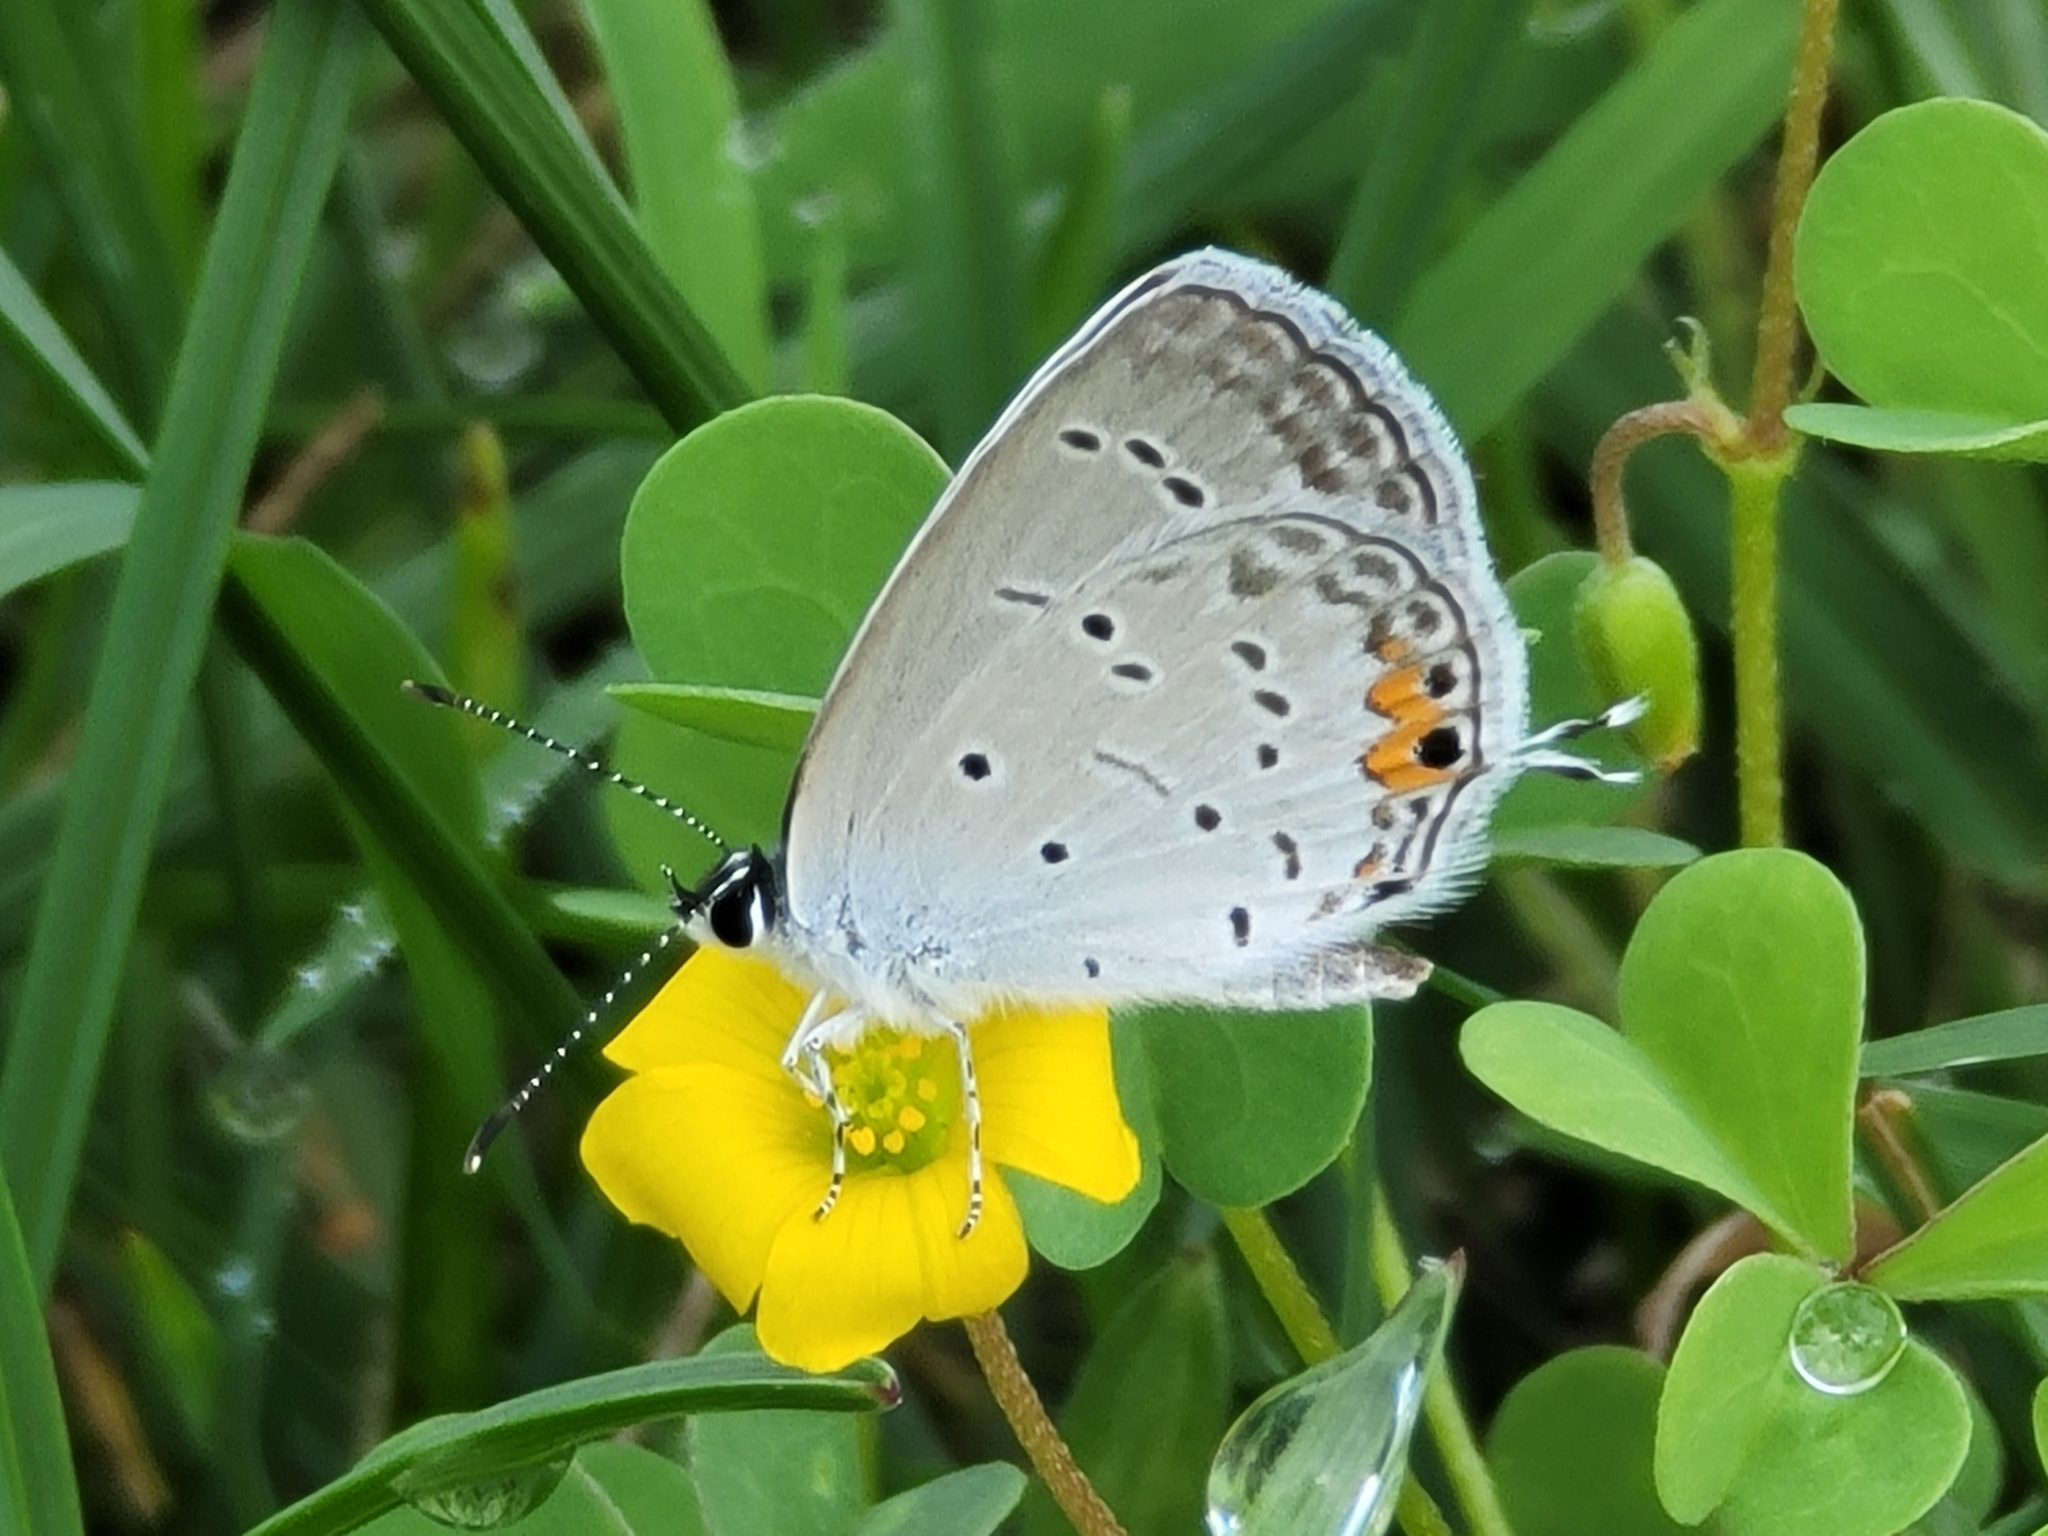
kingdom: Animalia
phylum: Arthropoda
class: Insecta
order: Lepidoptera
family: Lycaenidae
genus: Elkalyce
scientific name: Elkalyce comyntas
